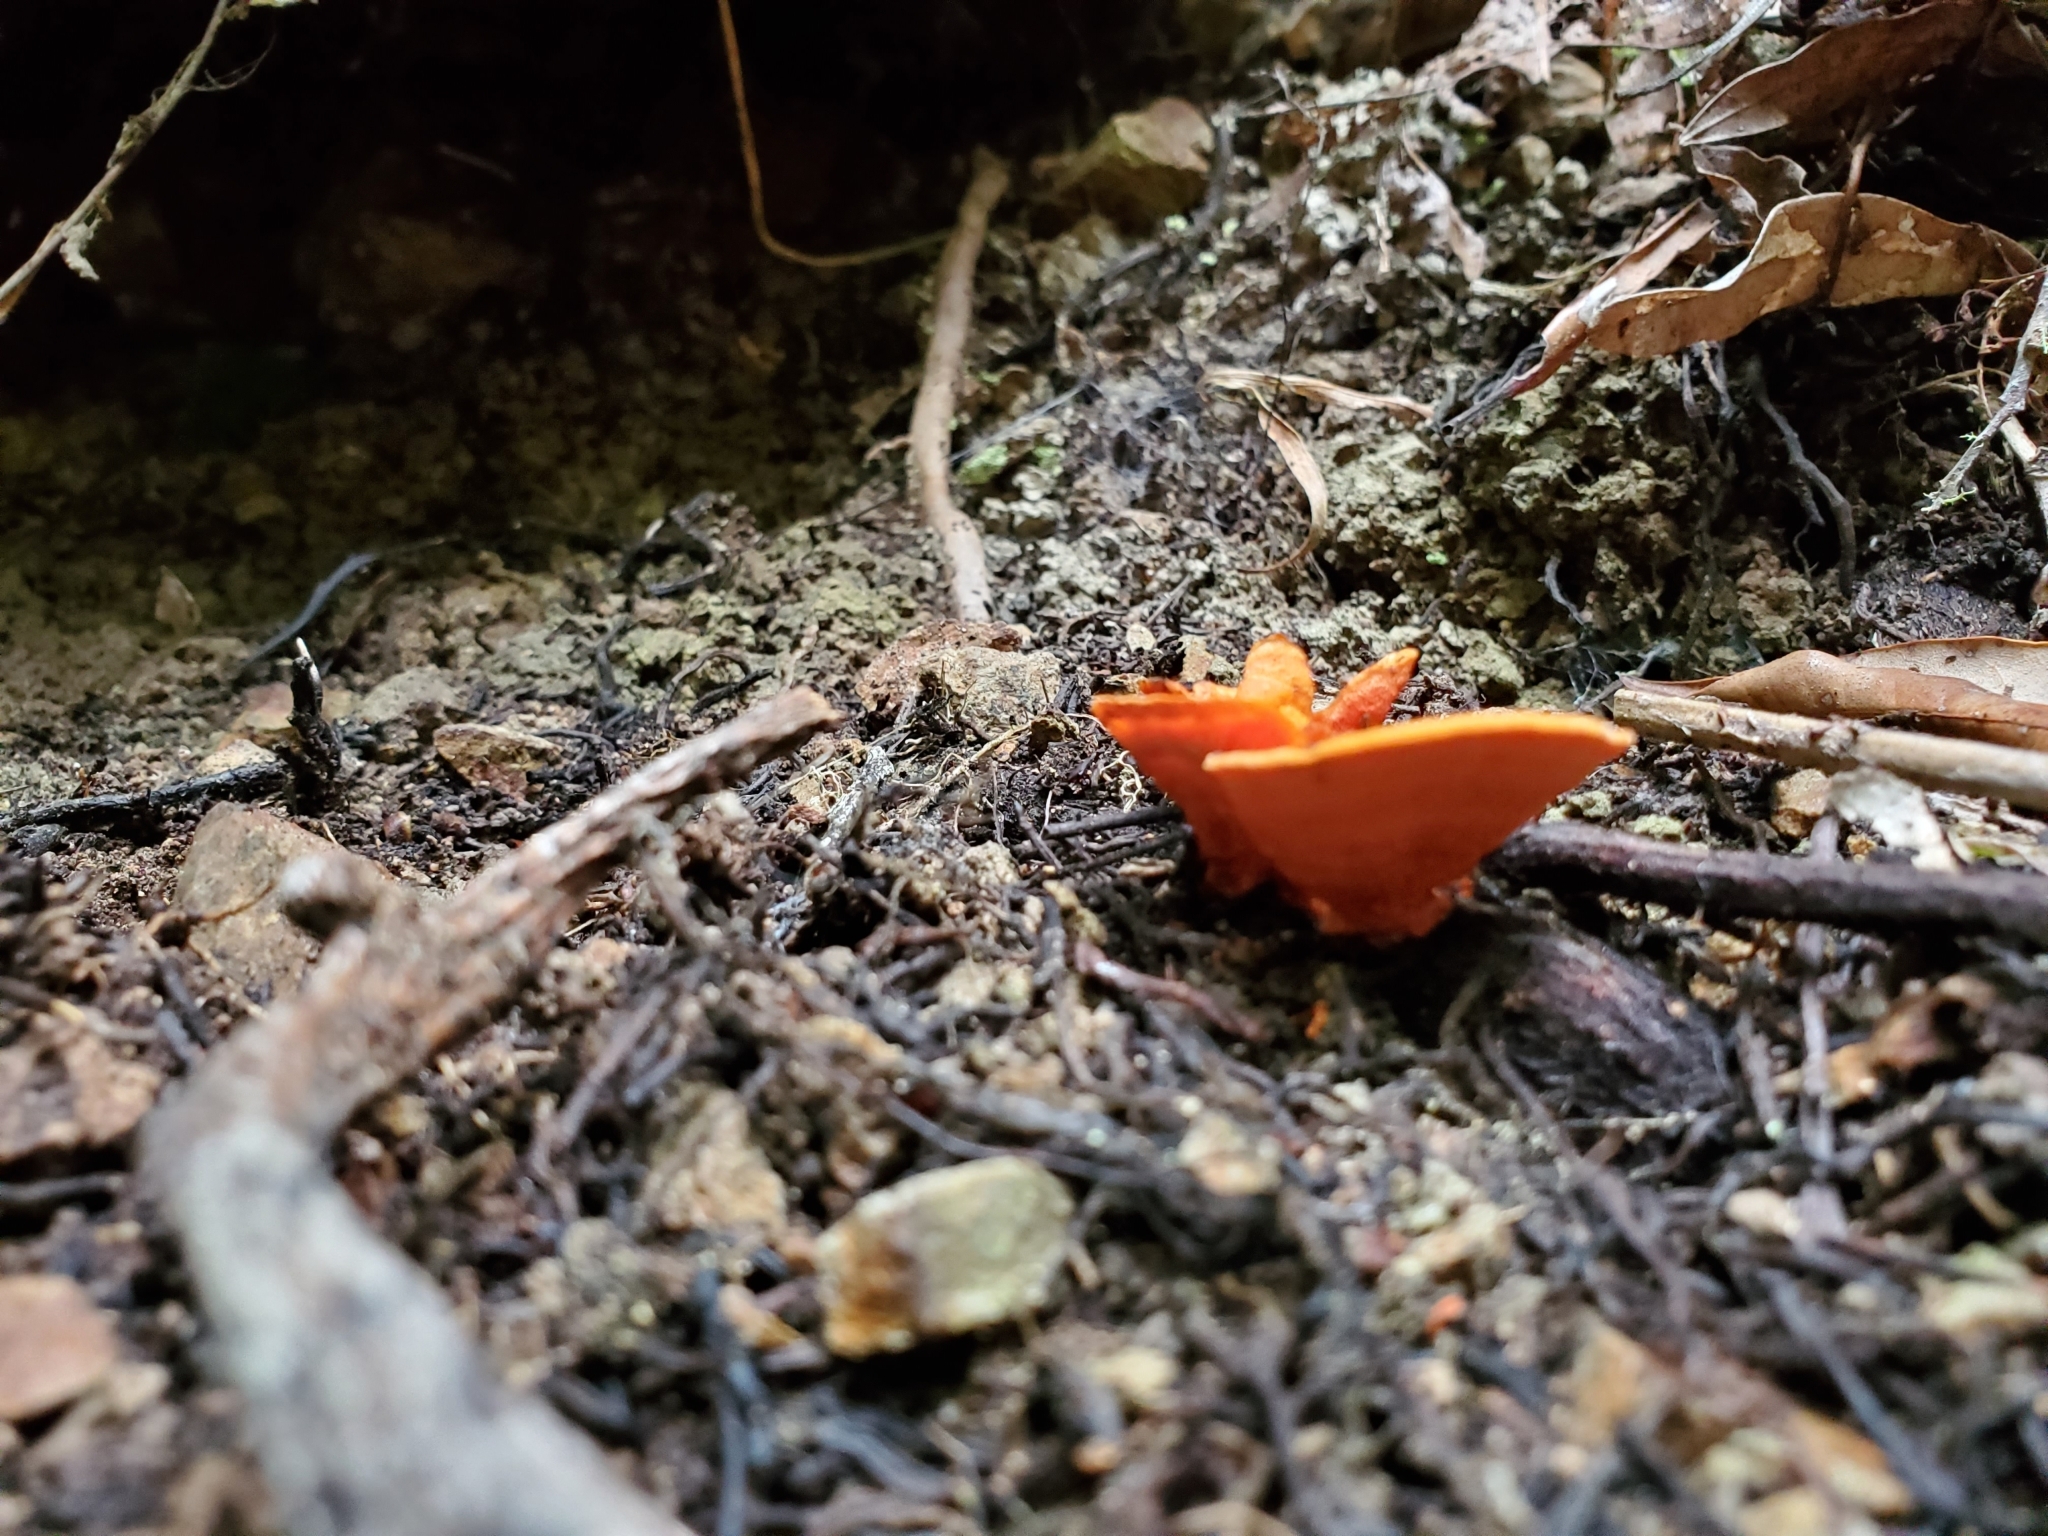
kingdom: Fungi
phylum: Basidiomycota
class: Agaricomycetes
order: Polyporales
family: Polyporaceae
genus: Trametes
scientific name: Trametes coccinea
